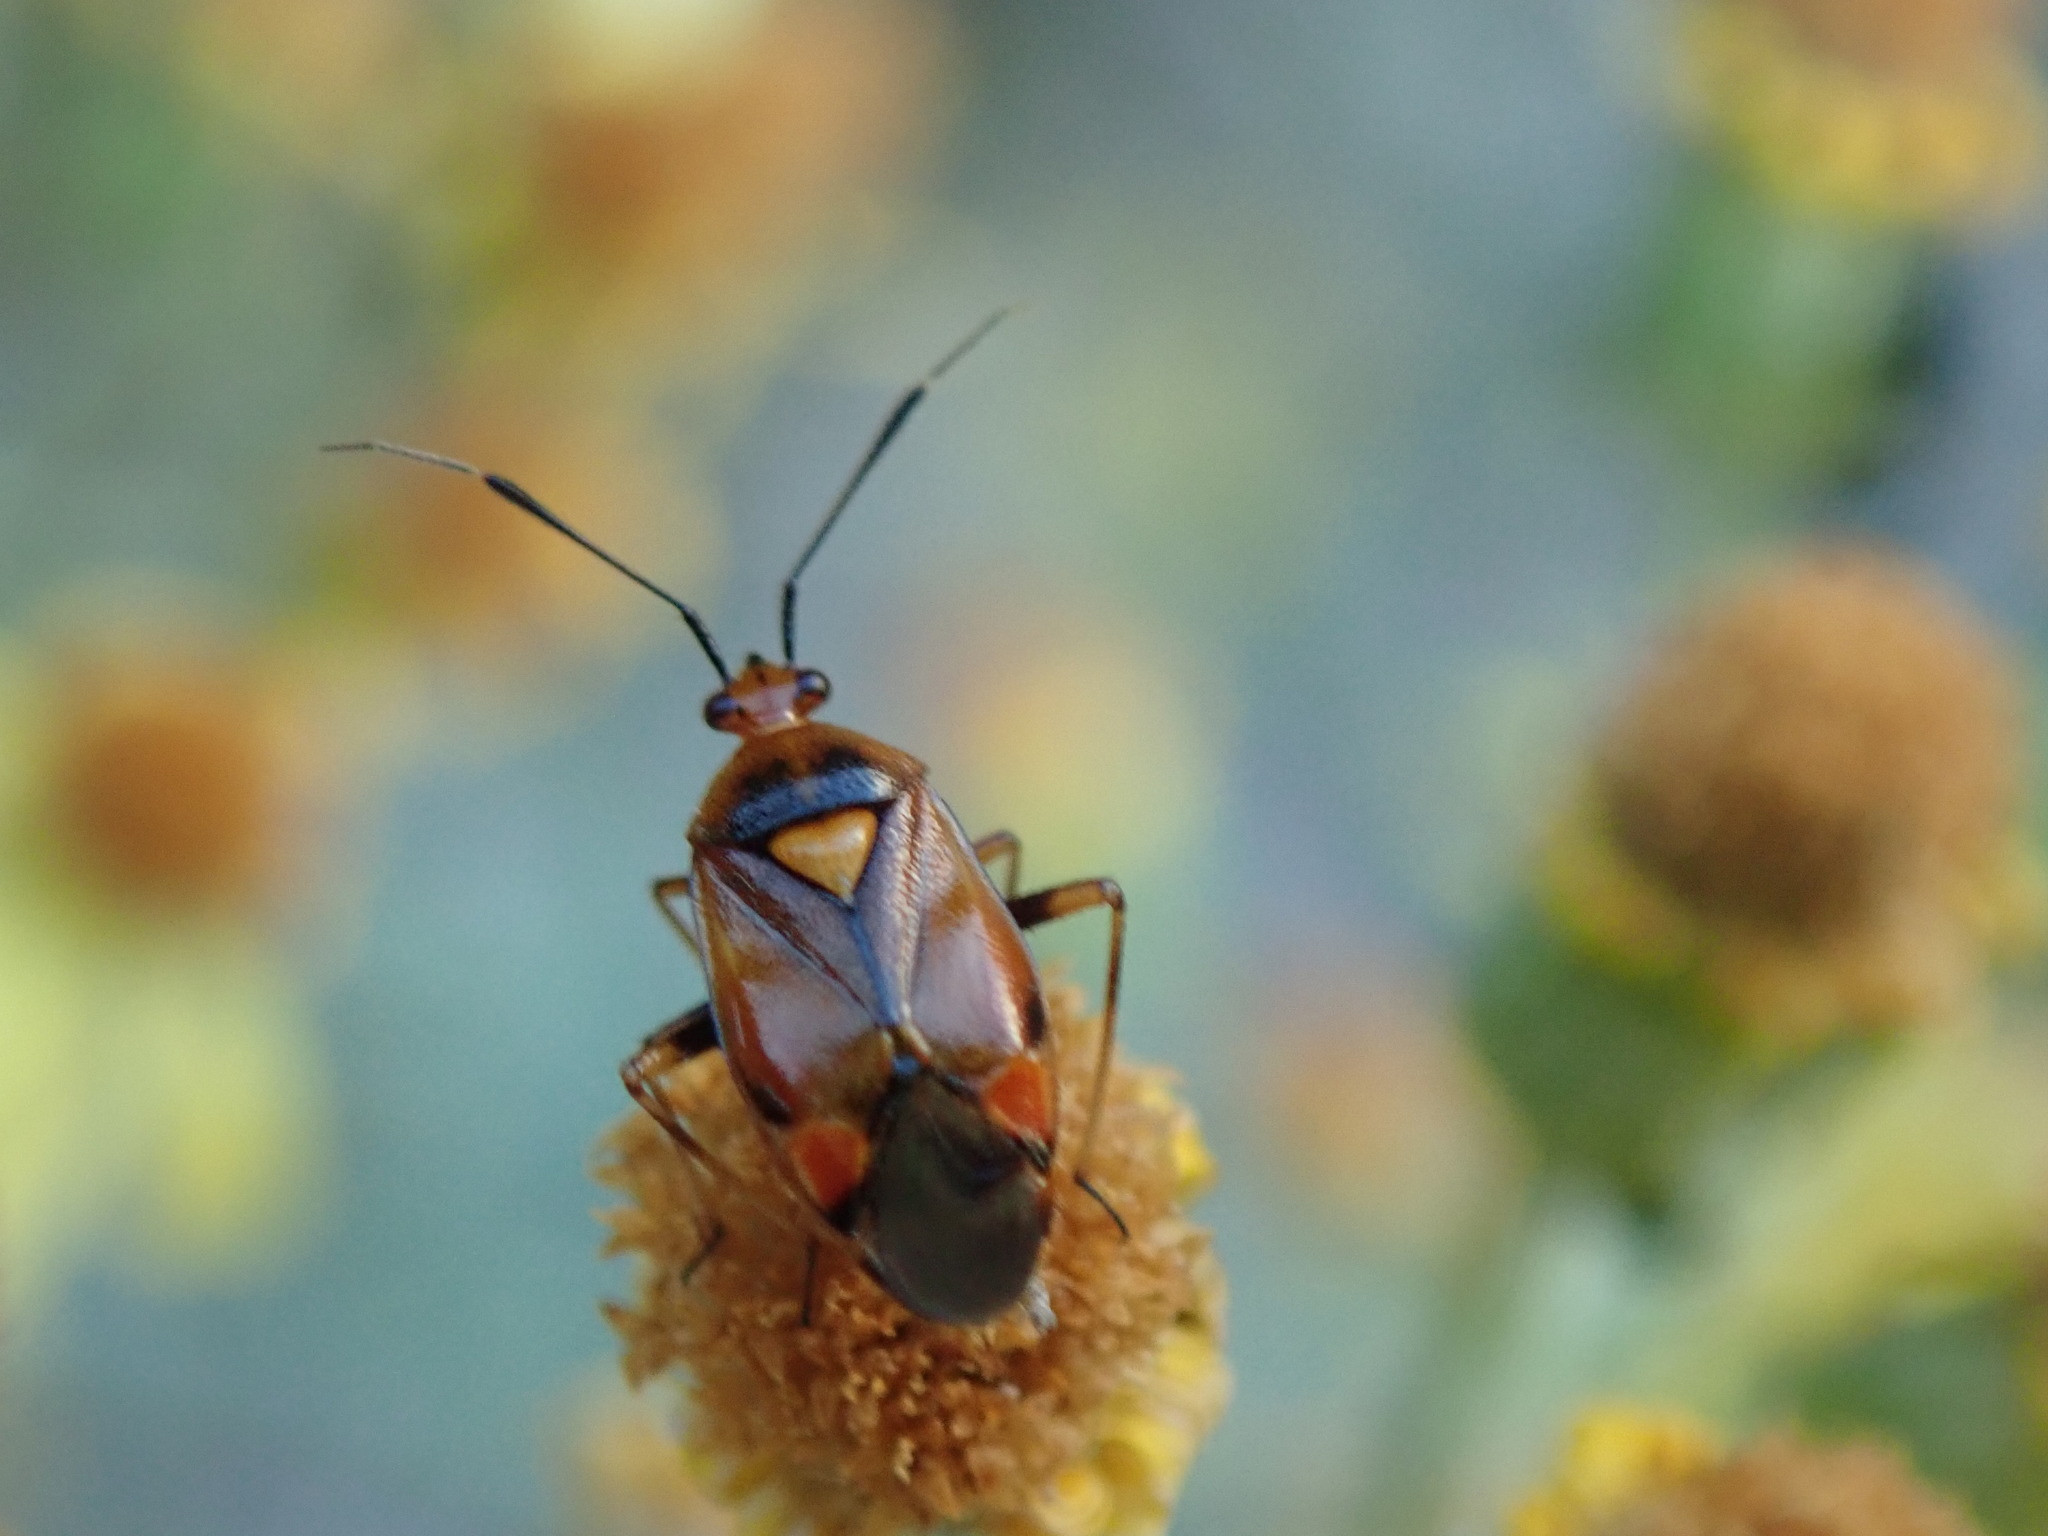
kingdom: Animalia
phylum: Arthropoda
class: Insecta
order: Hemiptera
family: Miridae
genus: Deraeocoris
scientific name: Deraeocoris ruber
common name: Plant bug
